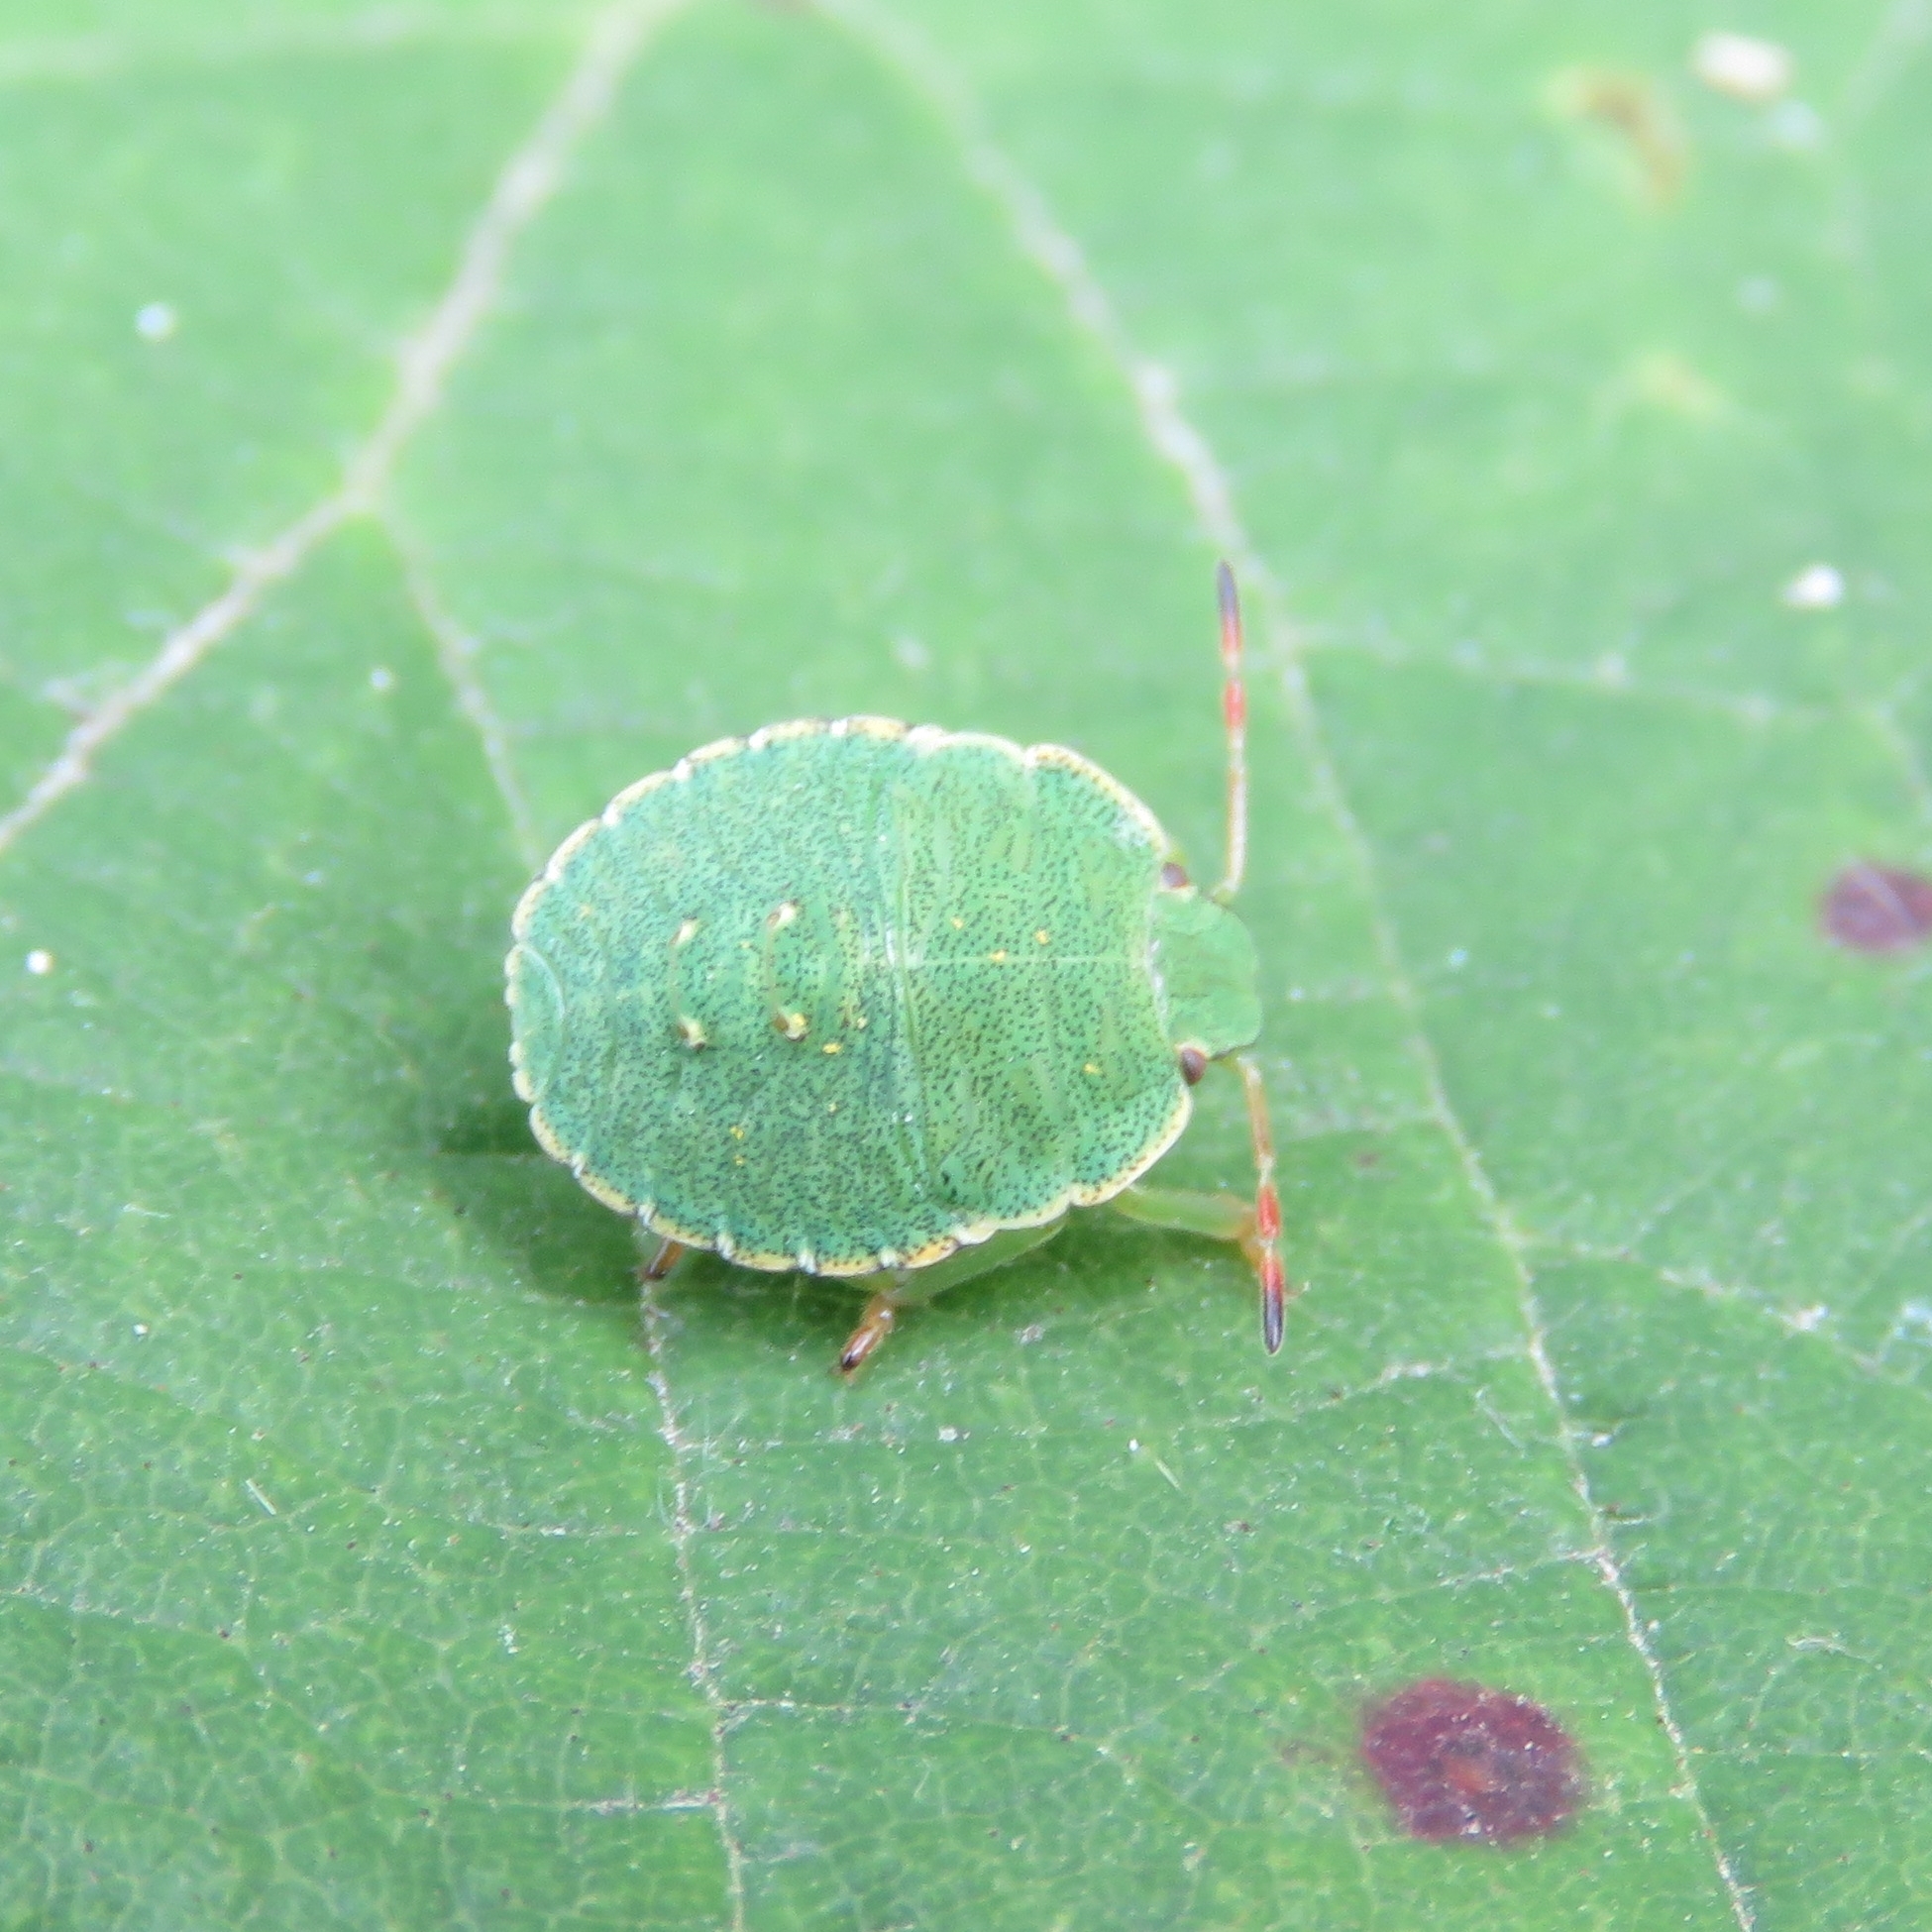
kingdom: Animalia
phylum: Arthropoda
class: Insecta
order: Hemiptera
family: Pentatomidae
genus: Palomena
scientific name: Palomena prasina
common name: Green shieldbug
